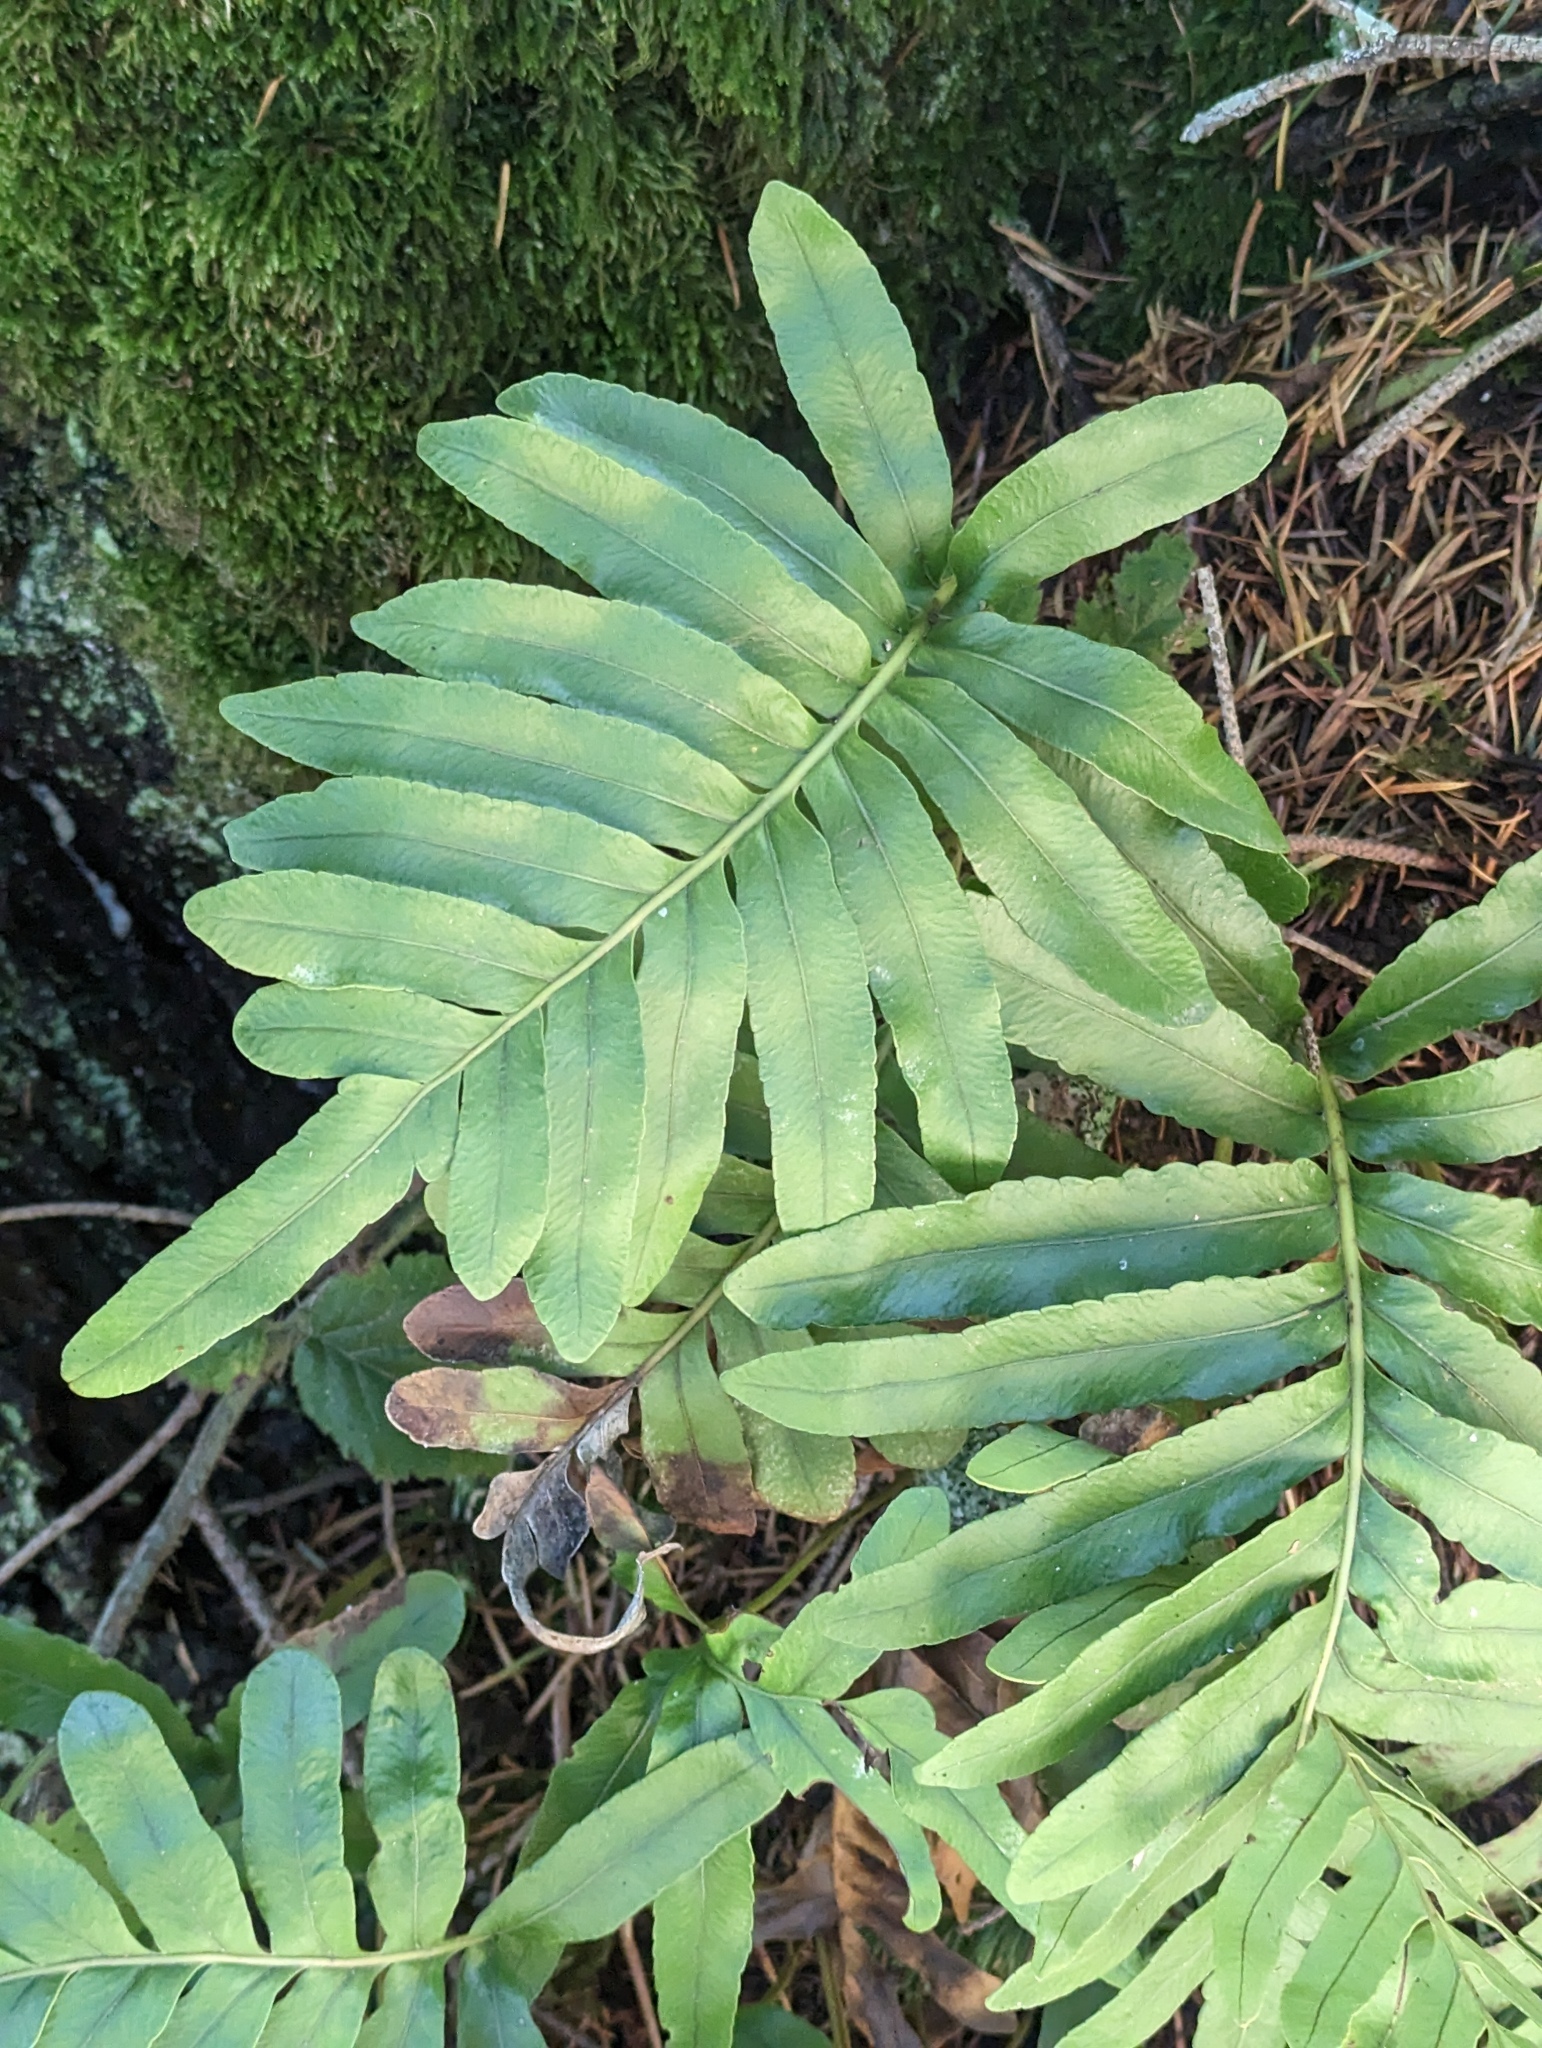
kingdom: Plantae
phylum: Tracheophyta
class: Polypodiopsida
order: Polypodiales
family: Polypodiaceae
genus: Polypodium
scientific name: Polypodium scouleri
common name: Scouler's polypody
